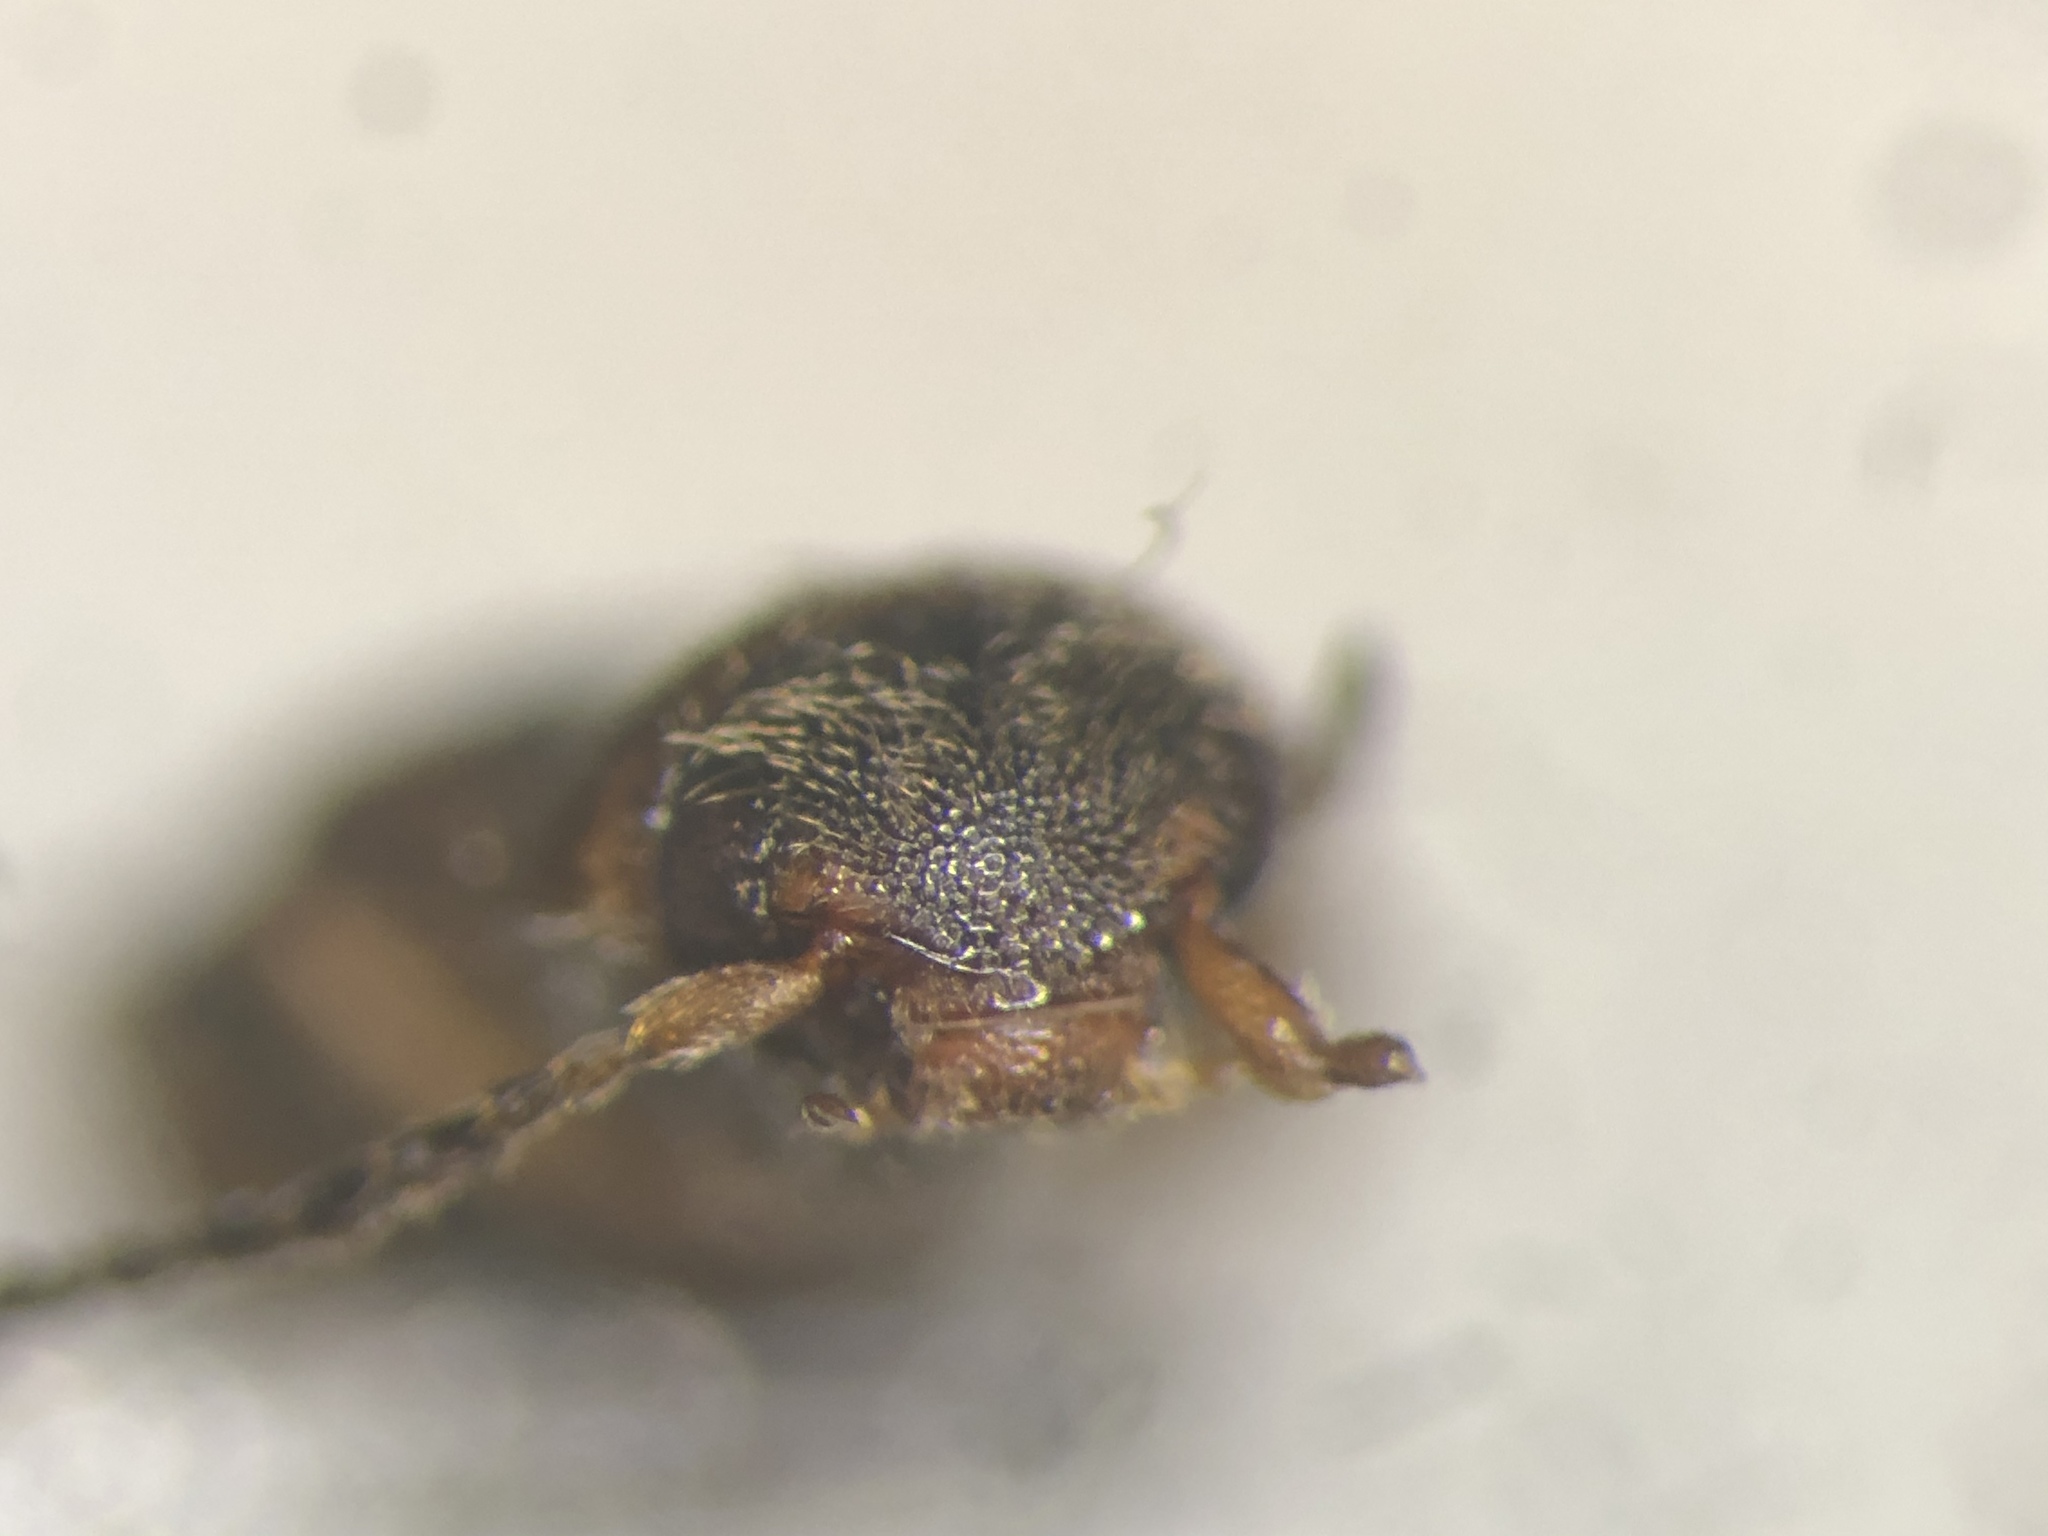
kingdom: Animalia
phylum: Arthropoda
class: Insecta
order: Coleoptera
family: Elateridae
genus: Dalopius
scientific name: Dalopius gentilis
